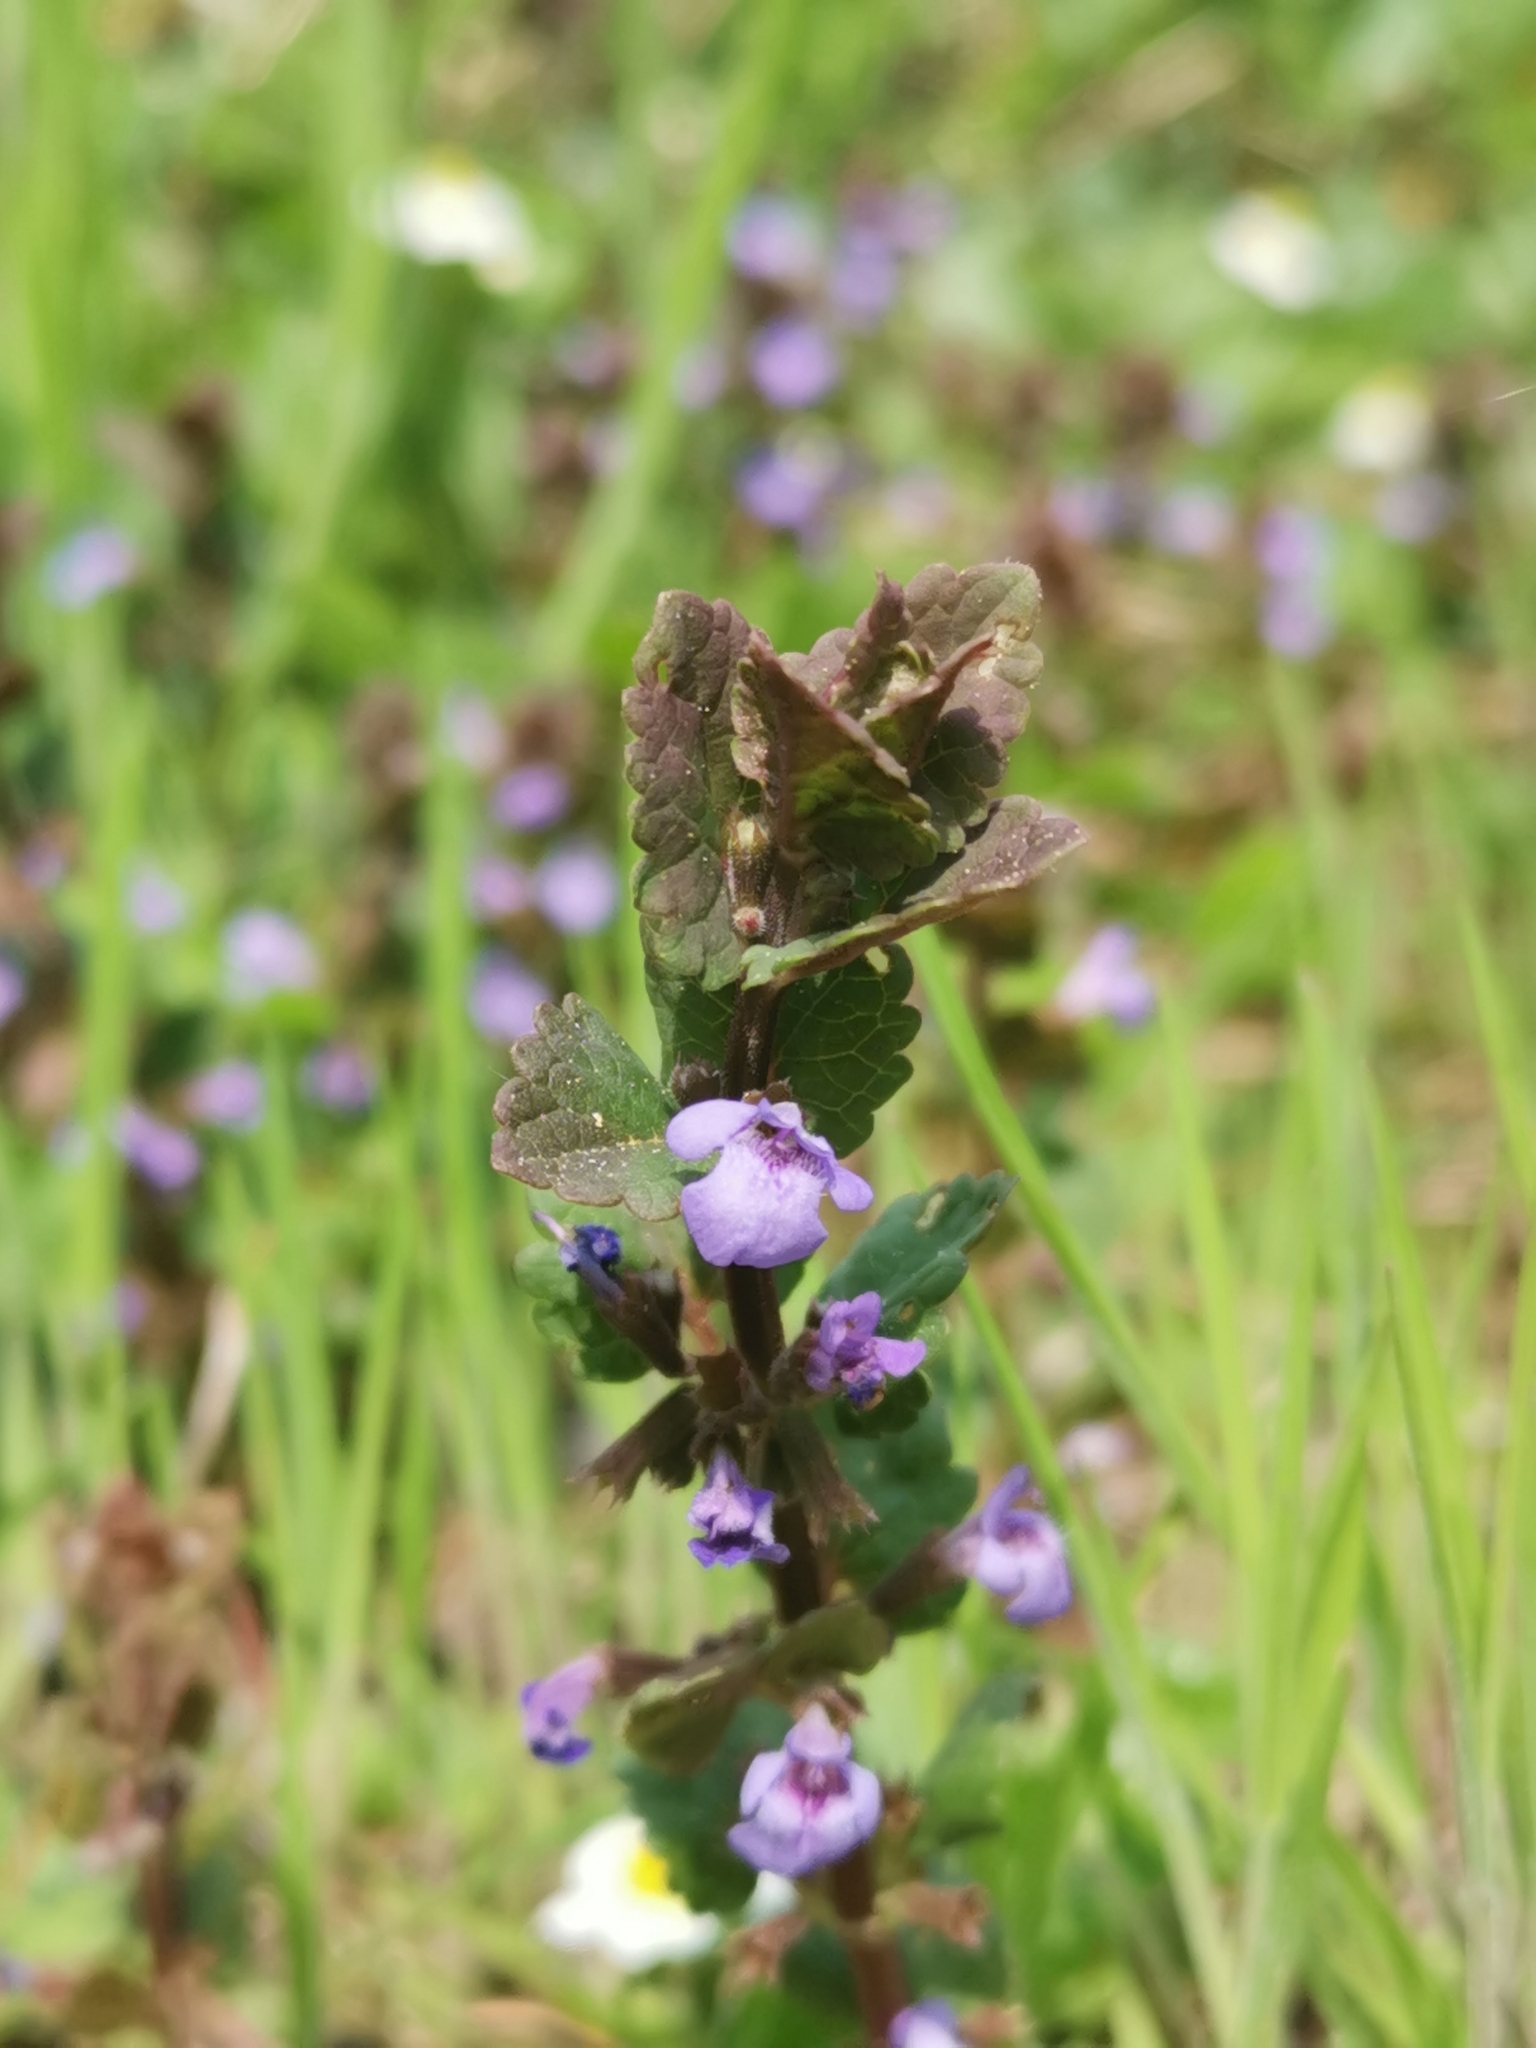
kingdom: Plantae
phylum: Tracheophyta
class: Magnoliopsida
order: Lamiales
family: Lamiaceae
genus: Glechoma
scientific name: Glechoma hederacea
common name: Ground ivy
